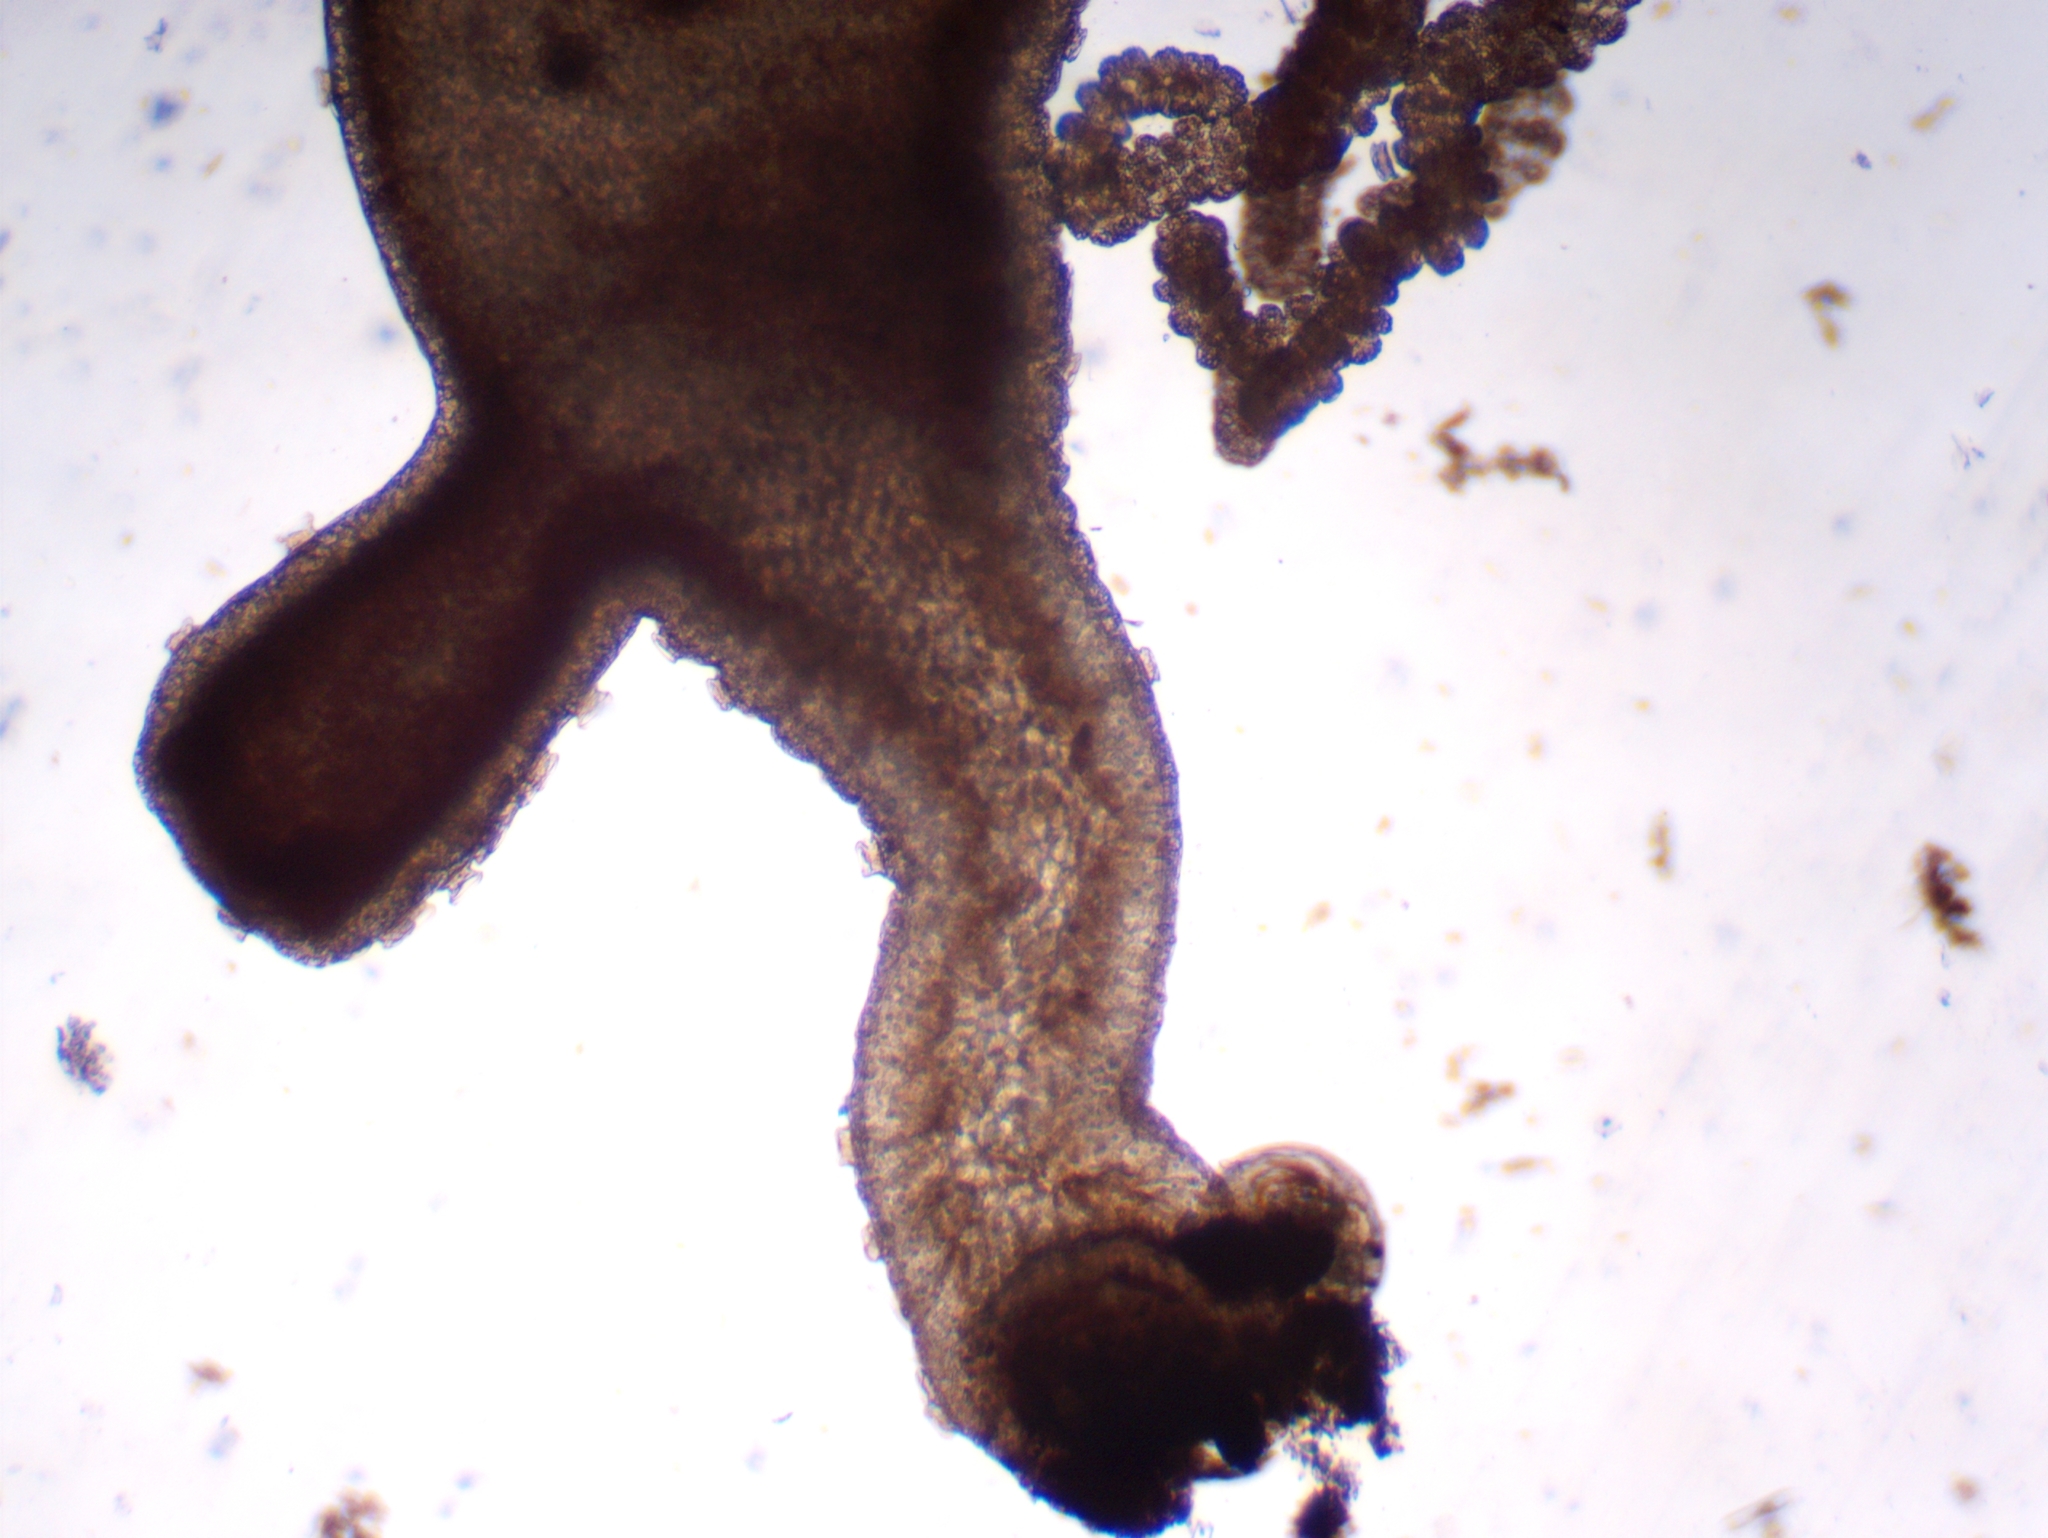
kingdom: Animalia
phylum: Cnidaria
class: Hydrozoa
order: Anthoathecata
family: Hydridae
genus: Hydra
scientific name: Hydra oligactis
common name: Brown hydra
